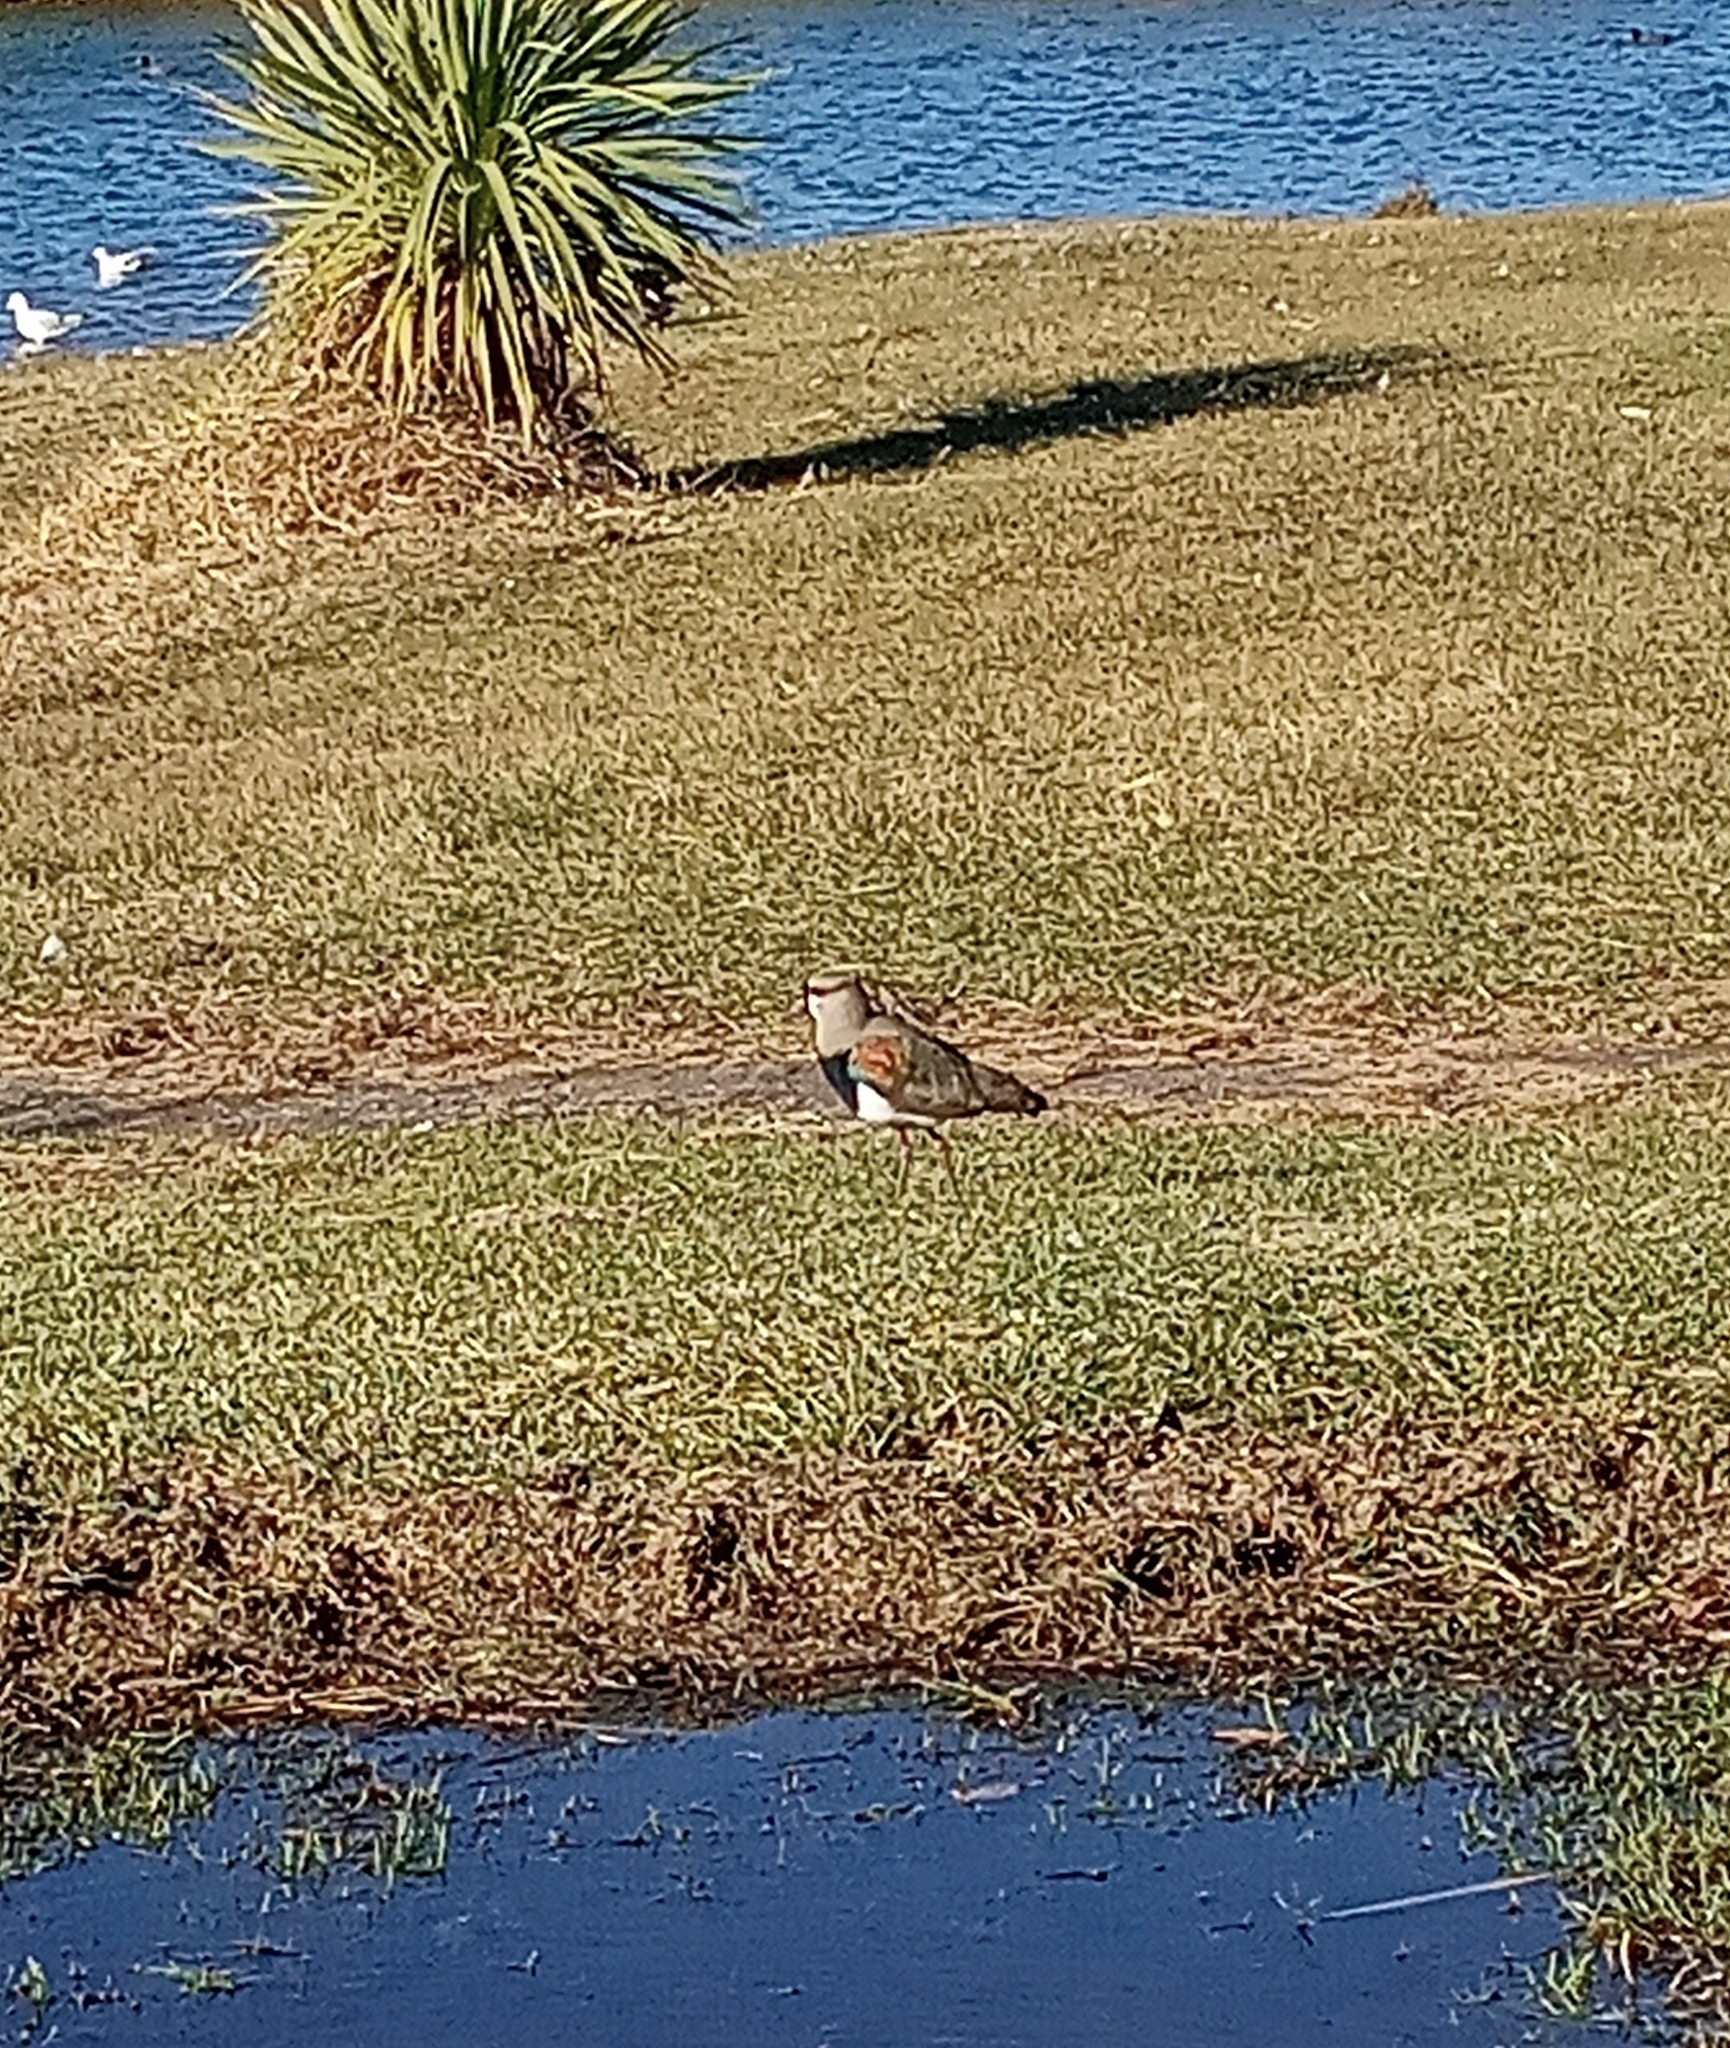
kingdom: Animalia
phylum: Chordata
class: Aves
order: Charadriiformes
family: Charadriidae
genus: Vanellus
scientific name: Vanellus chilensis
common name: Southern lapwing
